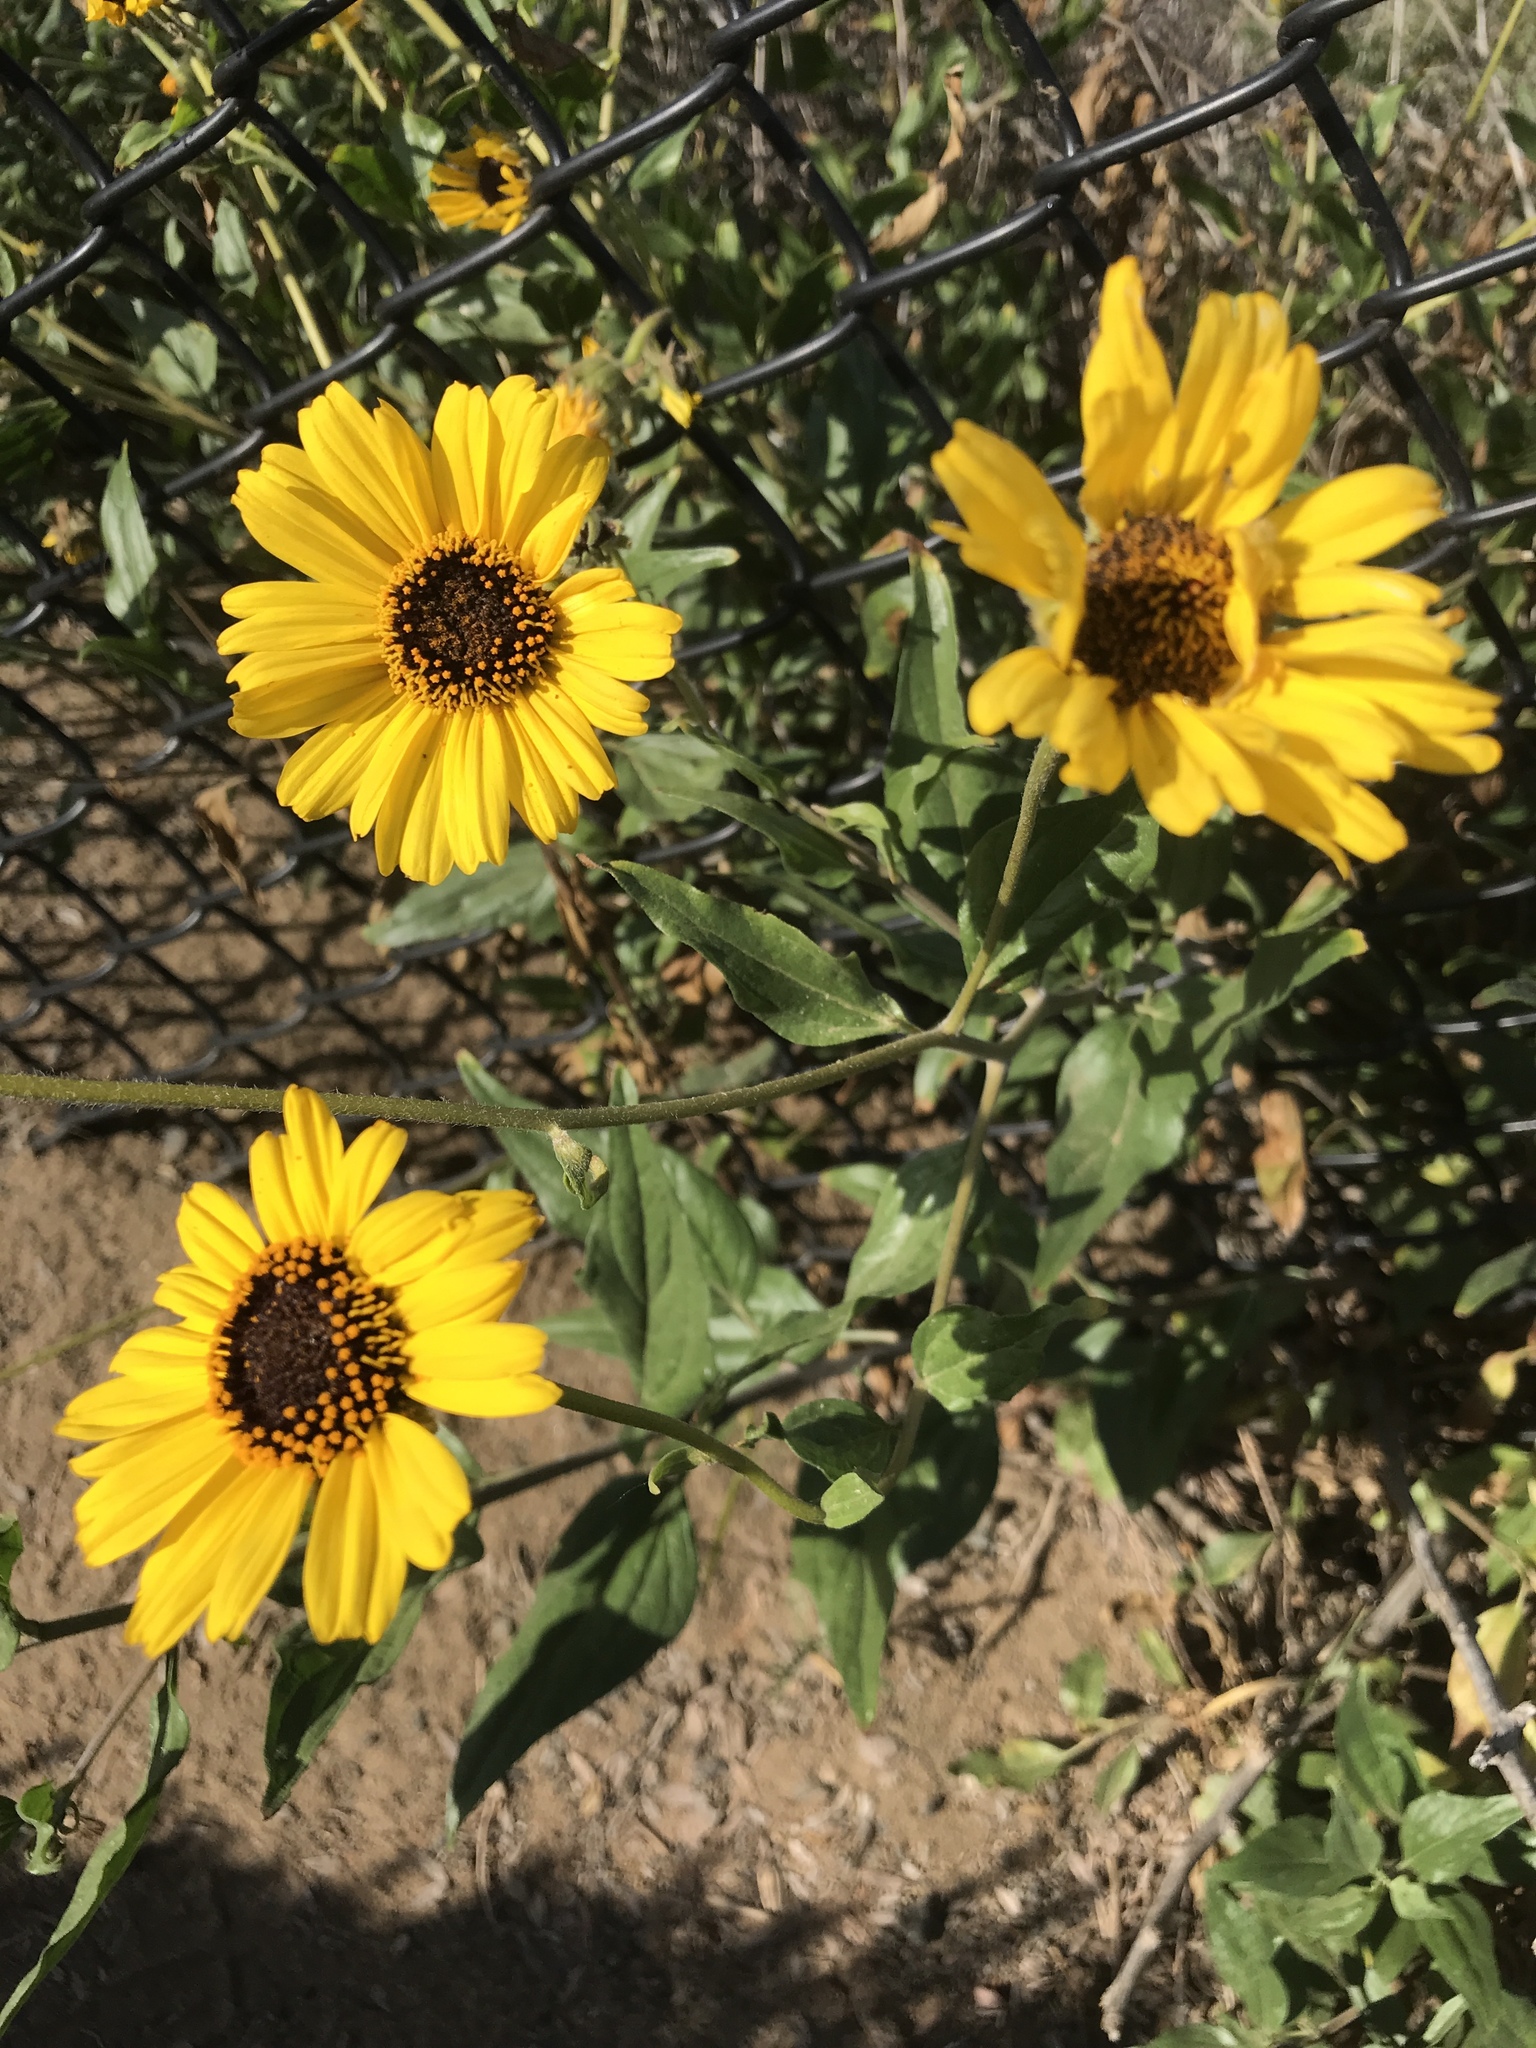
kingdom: Plantae
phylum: Tracheophyta
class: Magnoliopsida
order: Asterales
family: Asteraceae
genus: Encelia
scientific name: Encelia californica
